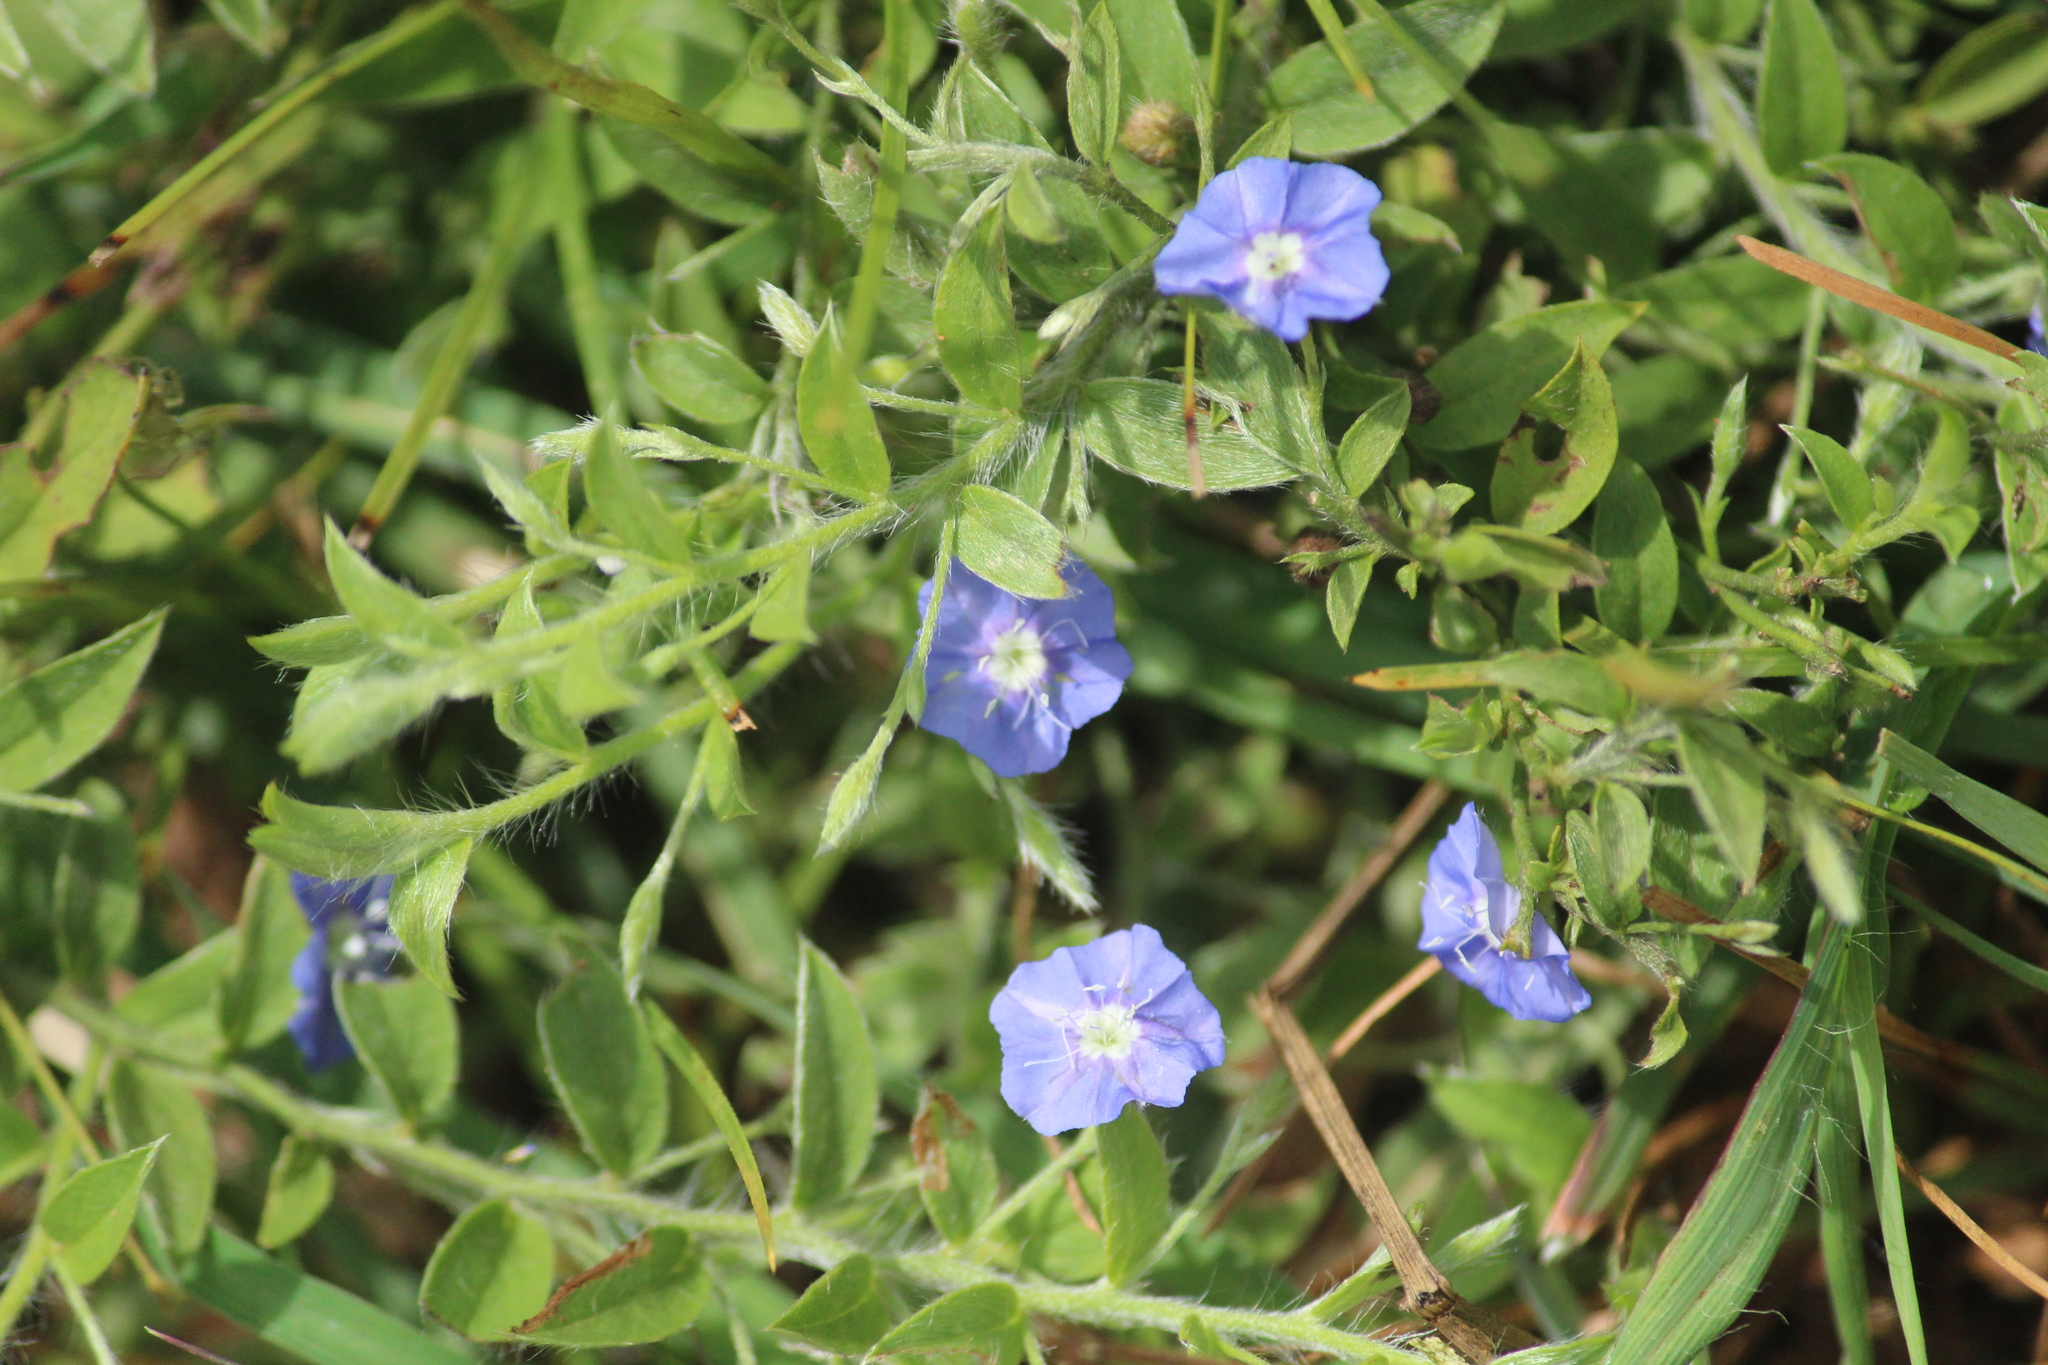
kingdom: Plantae
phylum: Tracheophyta
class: Magnoliopsida
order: Solanales
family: Convolvulaceae
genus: Evolvulus
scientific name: Evolvulus alsinoides
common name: Slender dwarf morning-glory
